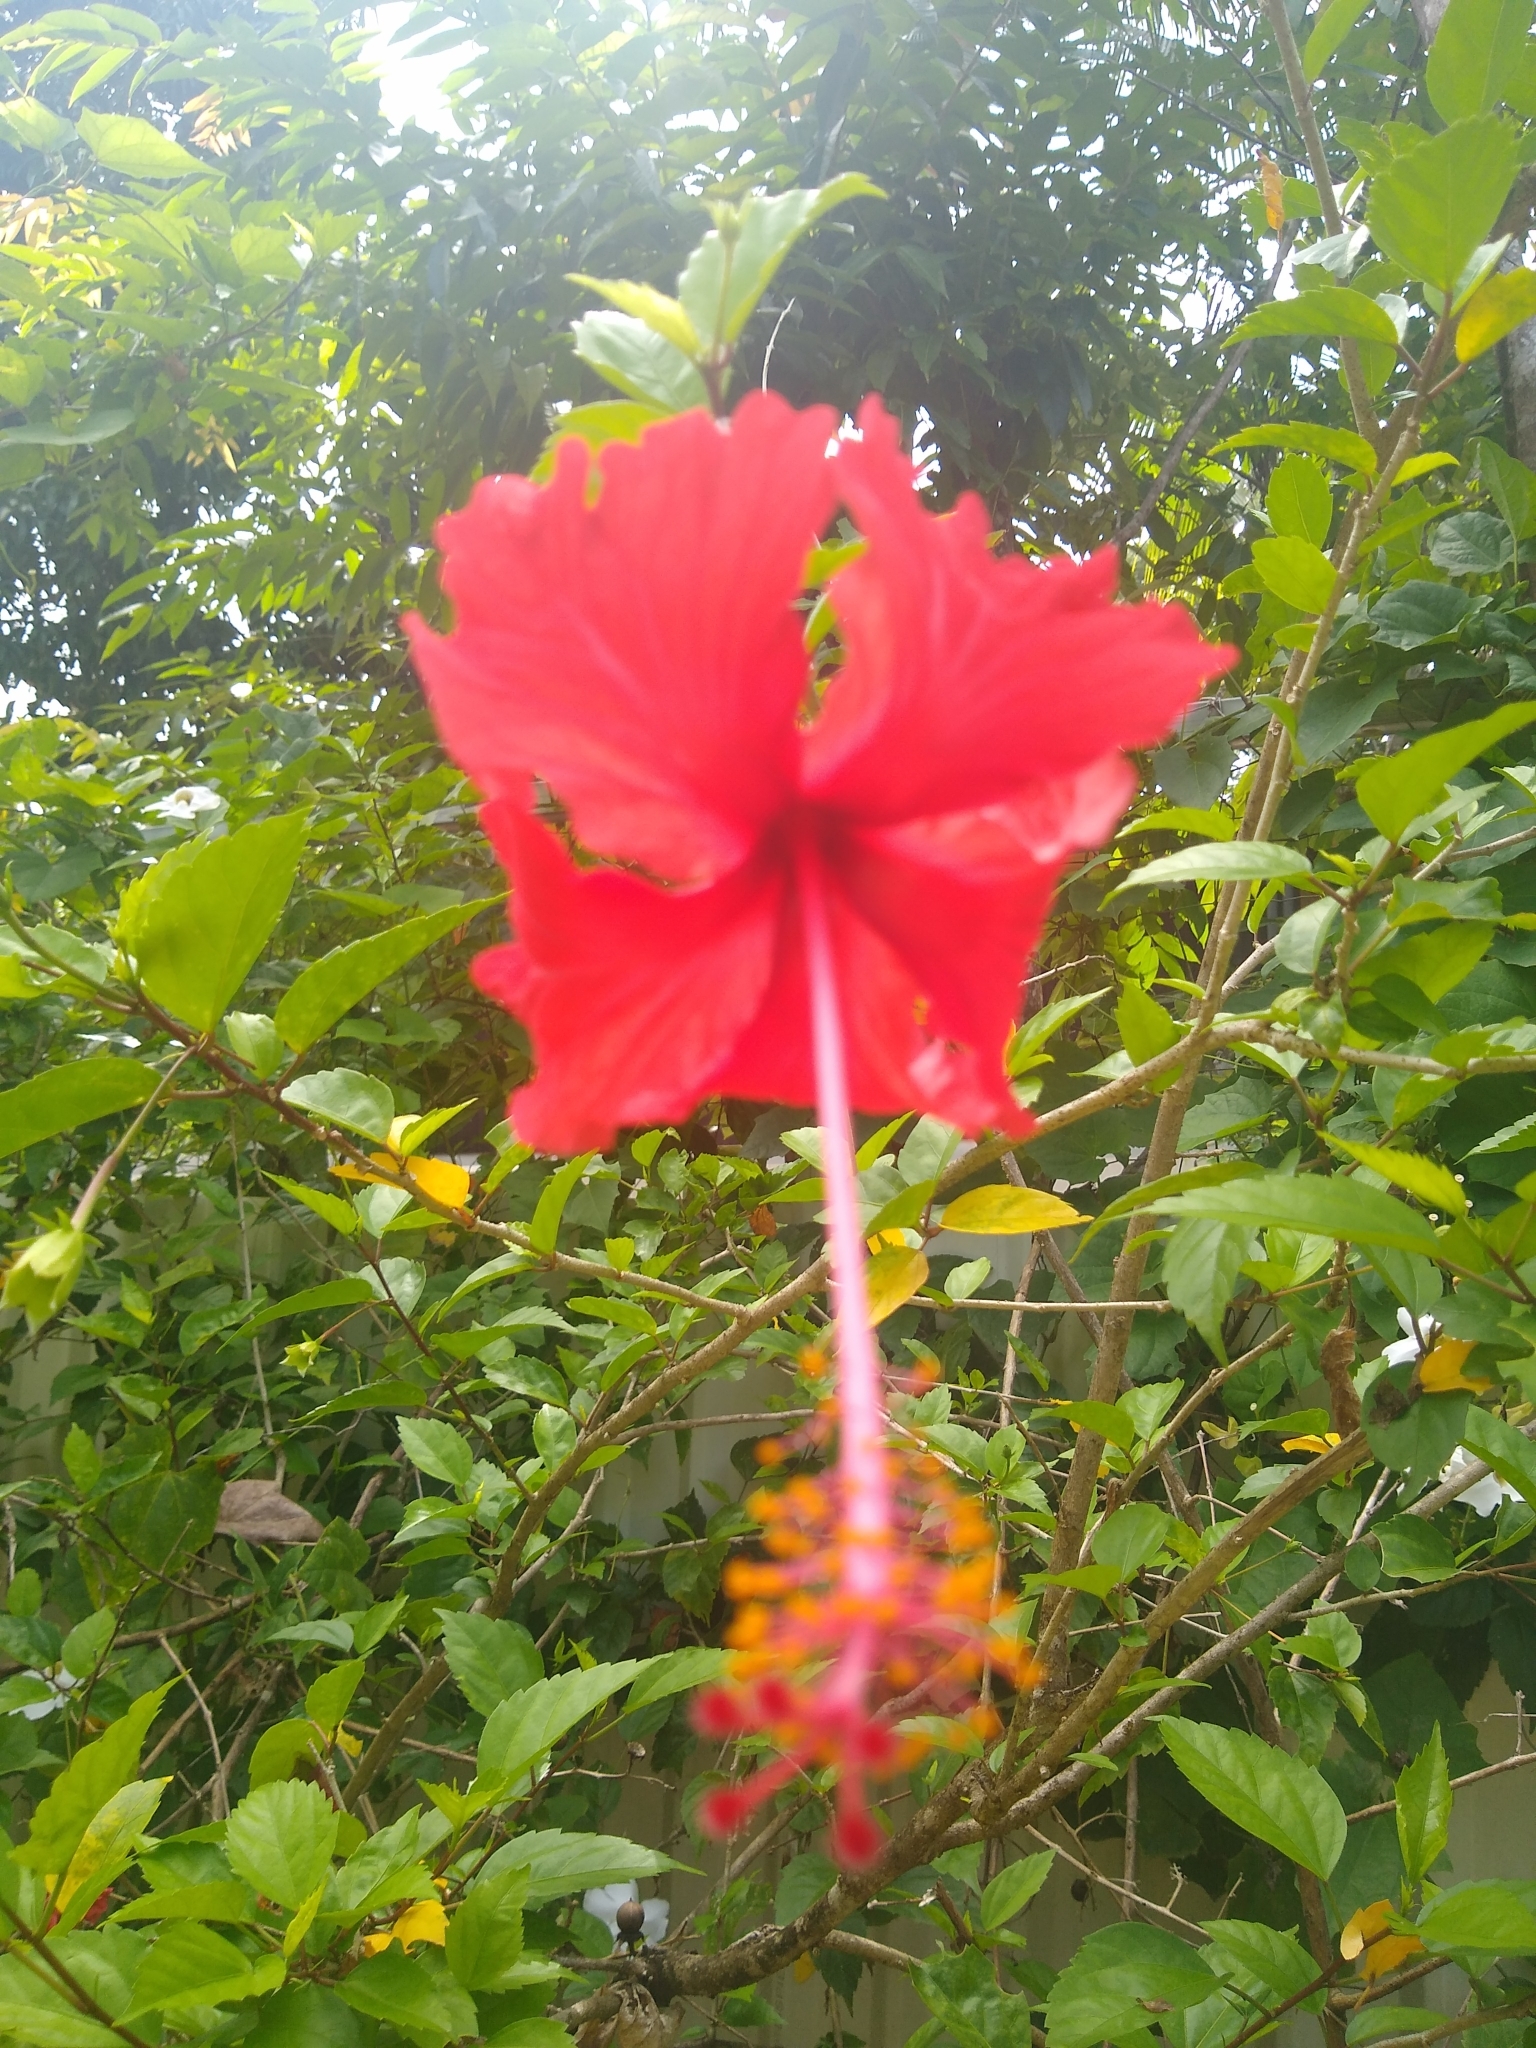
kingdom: Plantae
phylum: Tracheophyta
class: Magnoliopsida
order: Malvales
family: Malvaceae
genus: Hibiscus
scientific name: Hibiscus archeri
